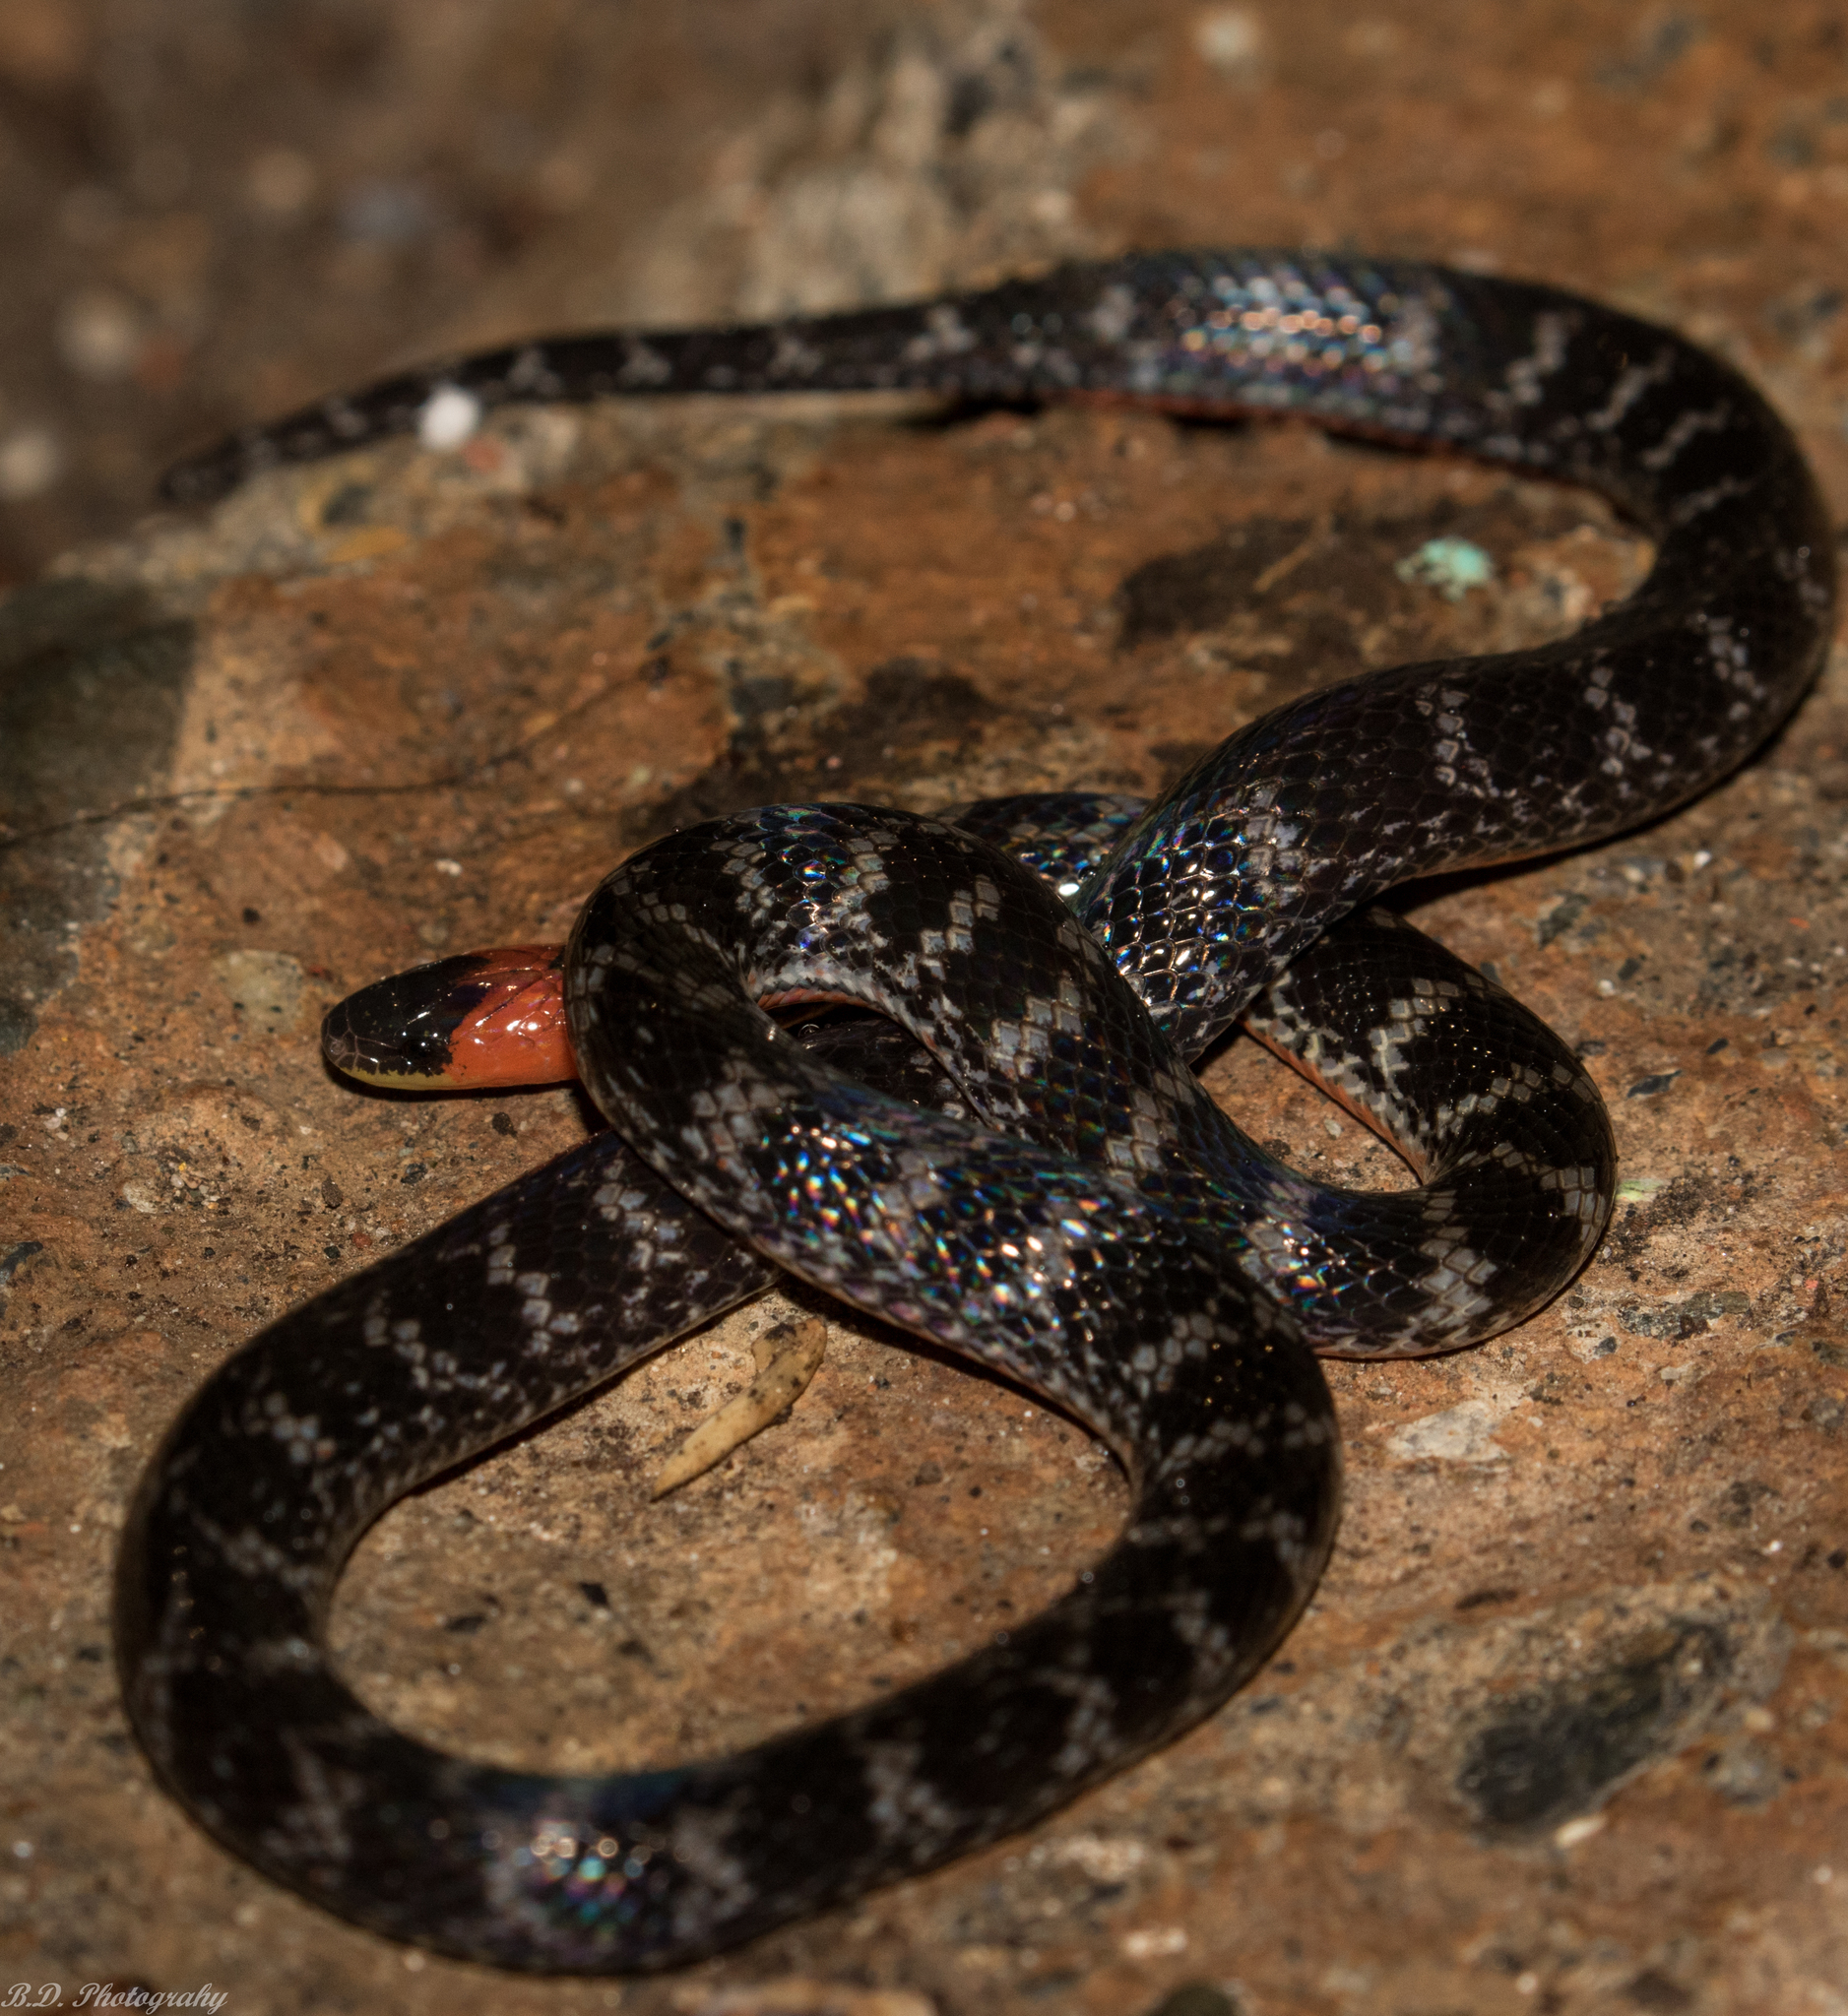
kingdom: Animalia
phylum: Chordata
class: Squamata
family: Colubridae
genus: Atractus
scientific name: Atractus clarki
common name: Clark's ground snake
